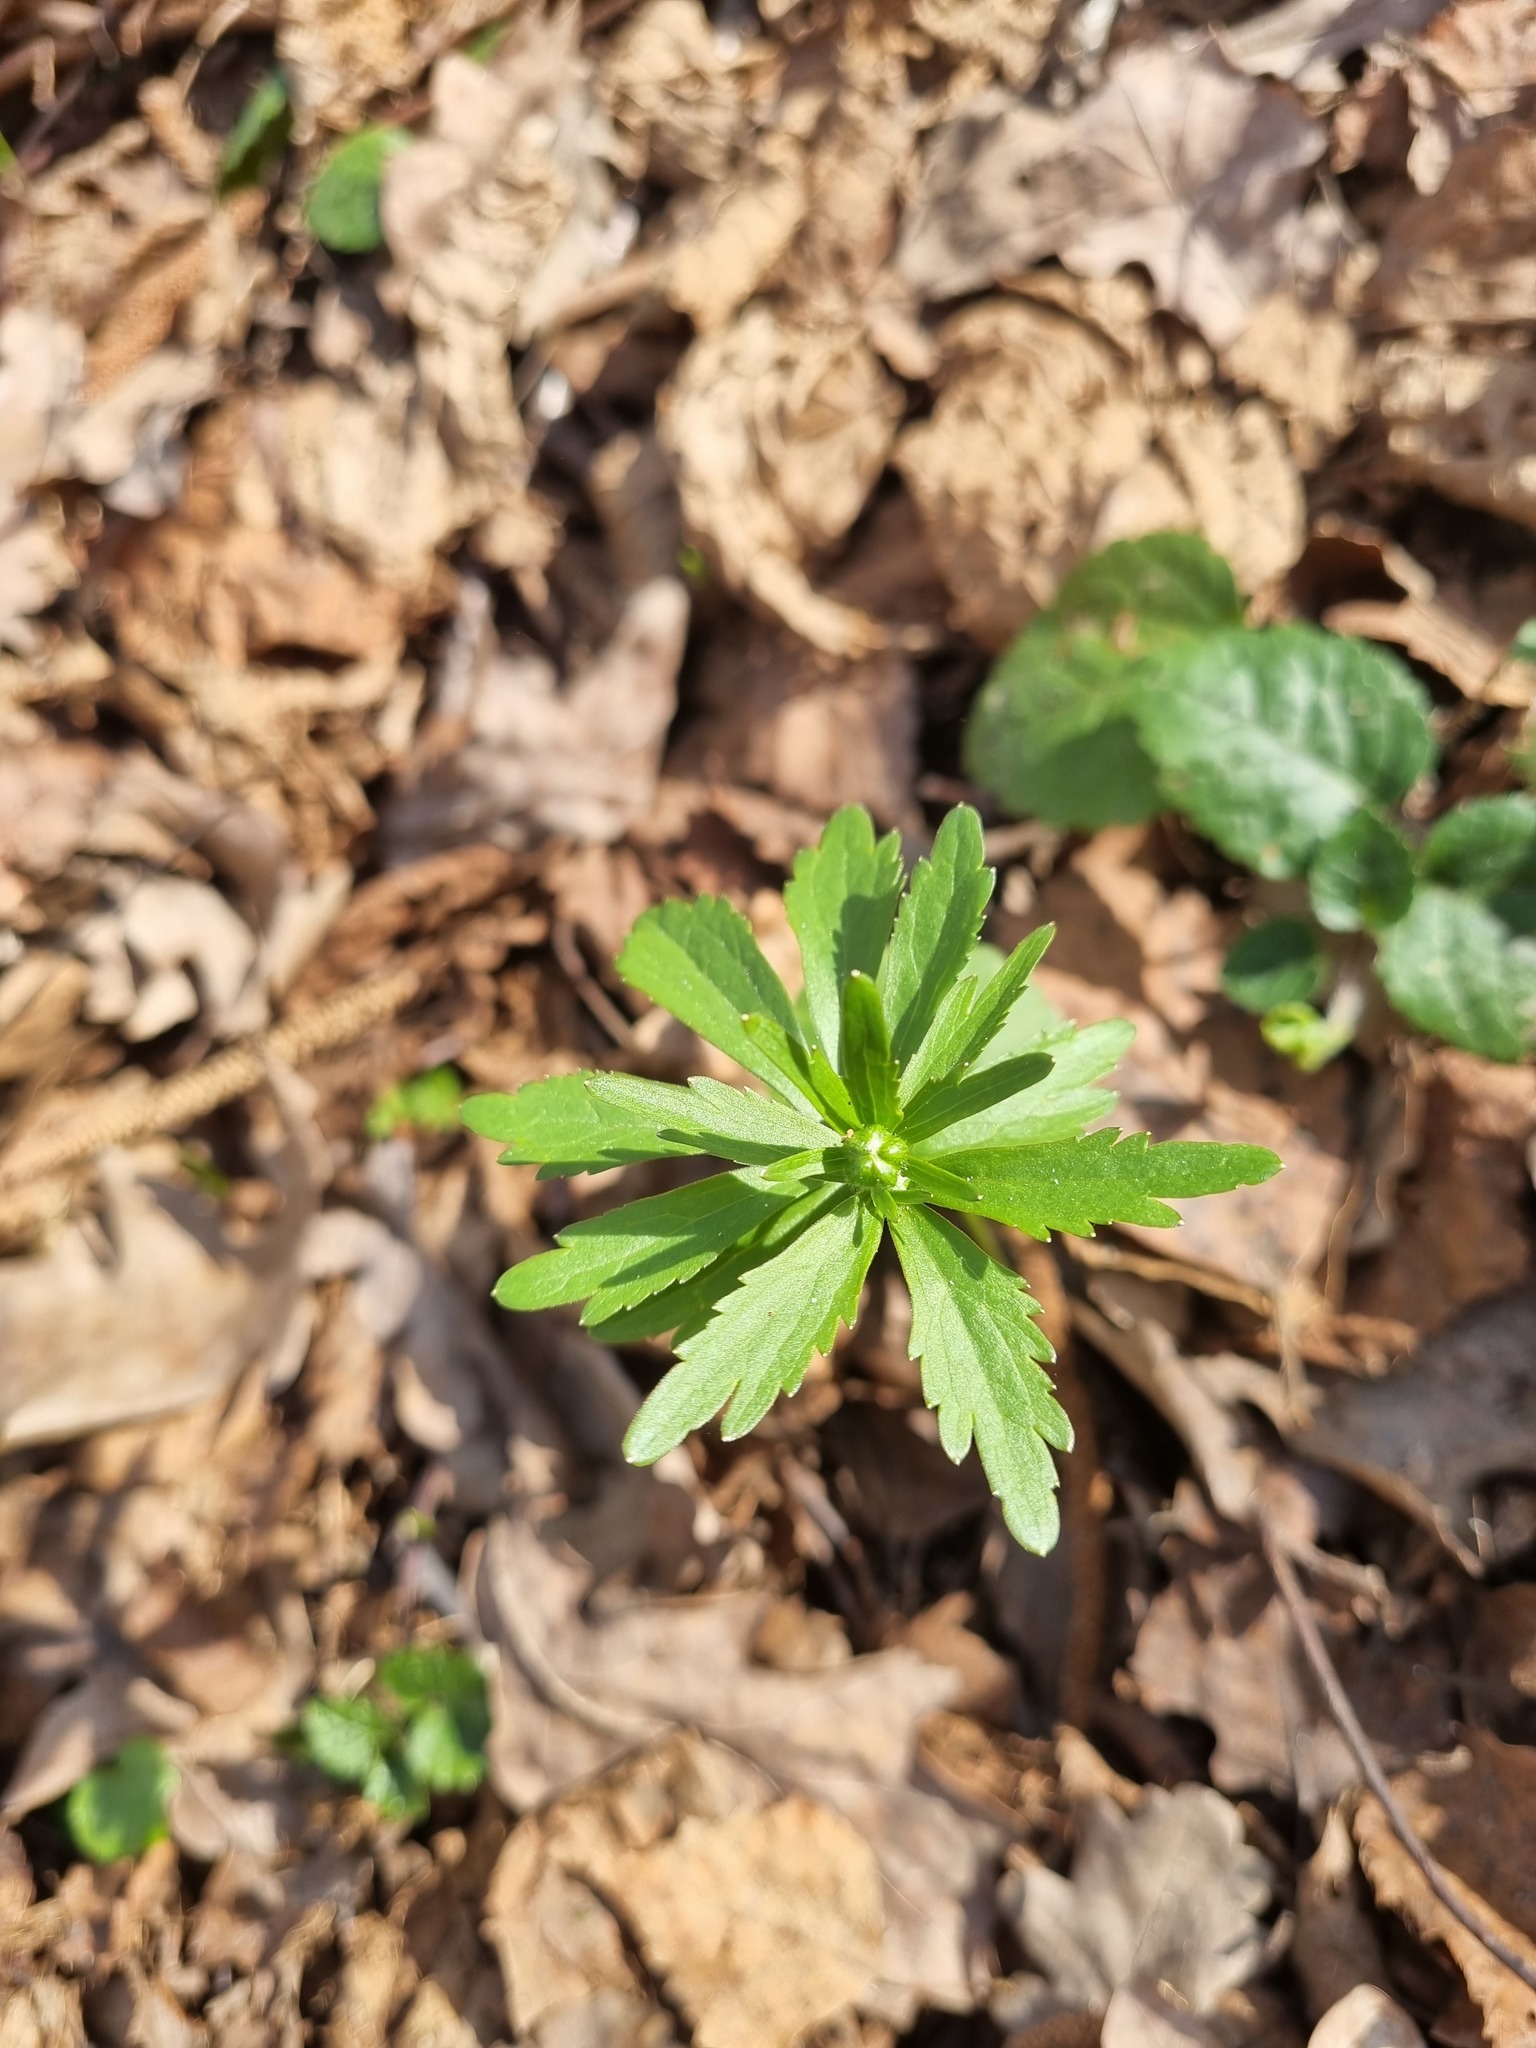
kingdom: Plantae
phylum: Tracheophyta
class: Magnoliopsida
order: Ranunculales
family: Ranunculaceae
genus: Ranunculus
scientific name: Ranunculus cassubicus
